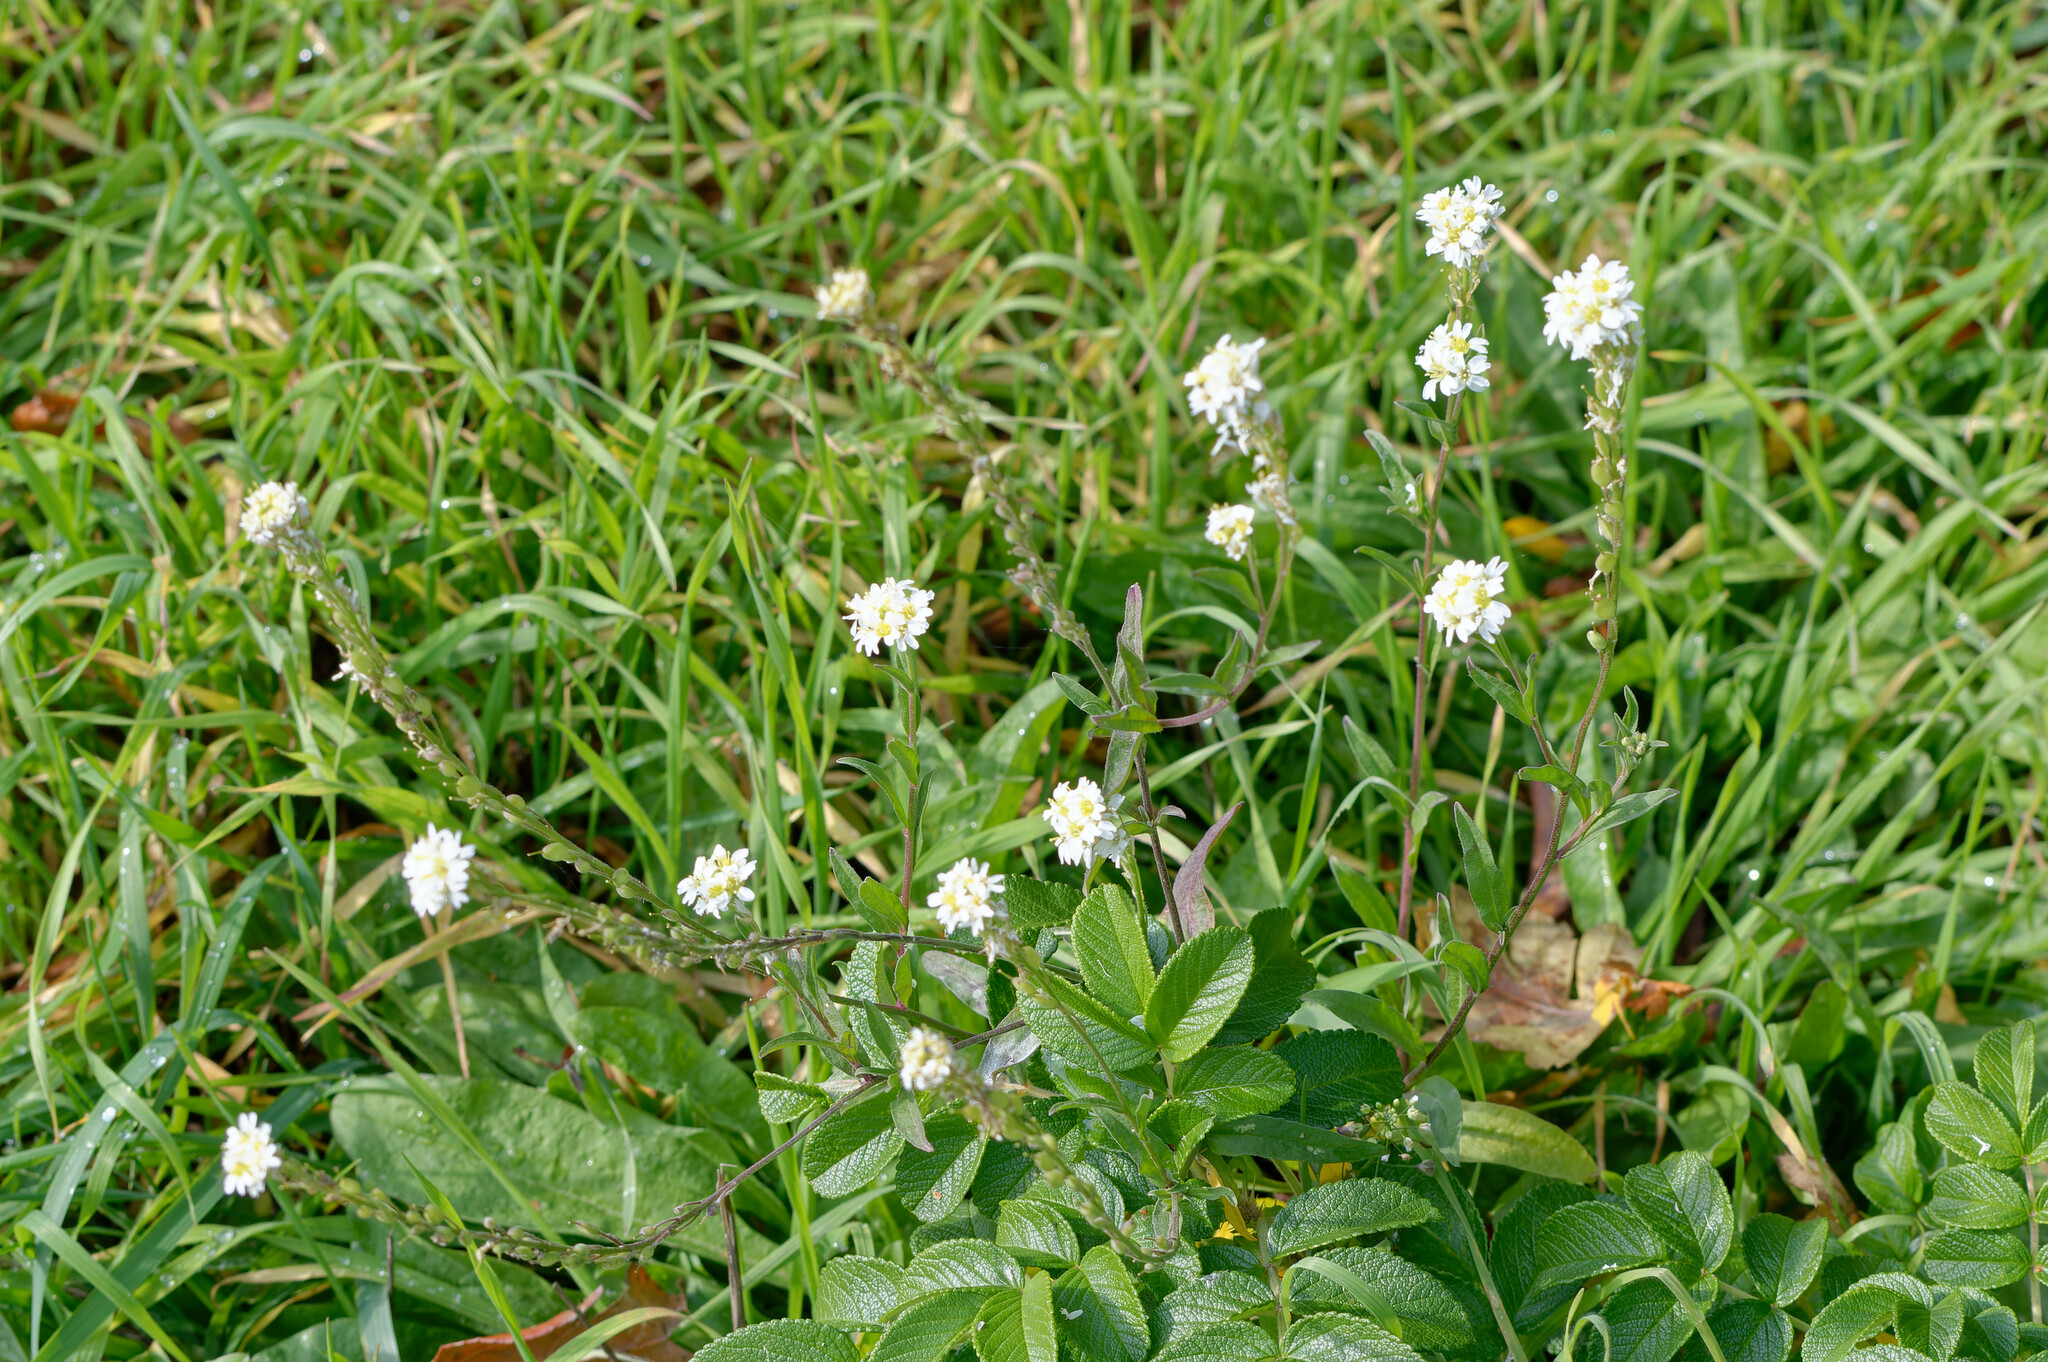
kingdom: Plantae
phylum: Tracheophyta
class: Magnoliopsida
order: Brassicales
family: Brassicaceae
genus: Berteroa
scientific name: Berteroa incana
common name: Hoary alison
